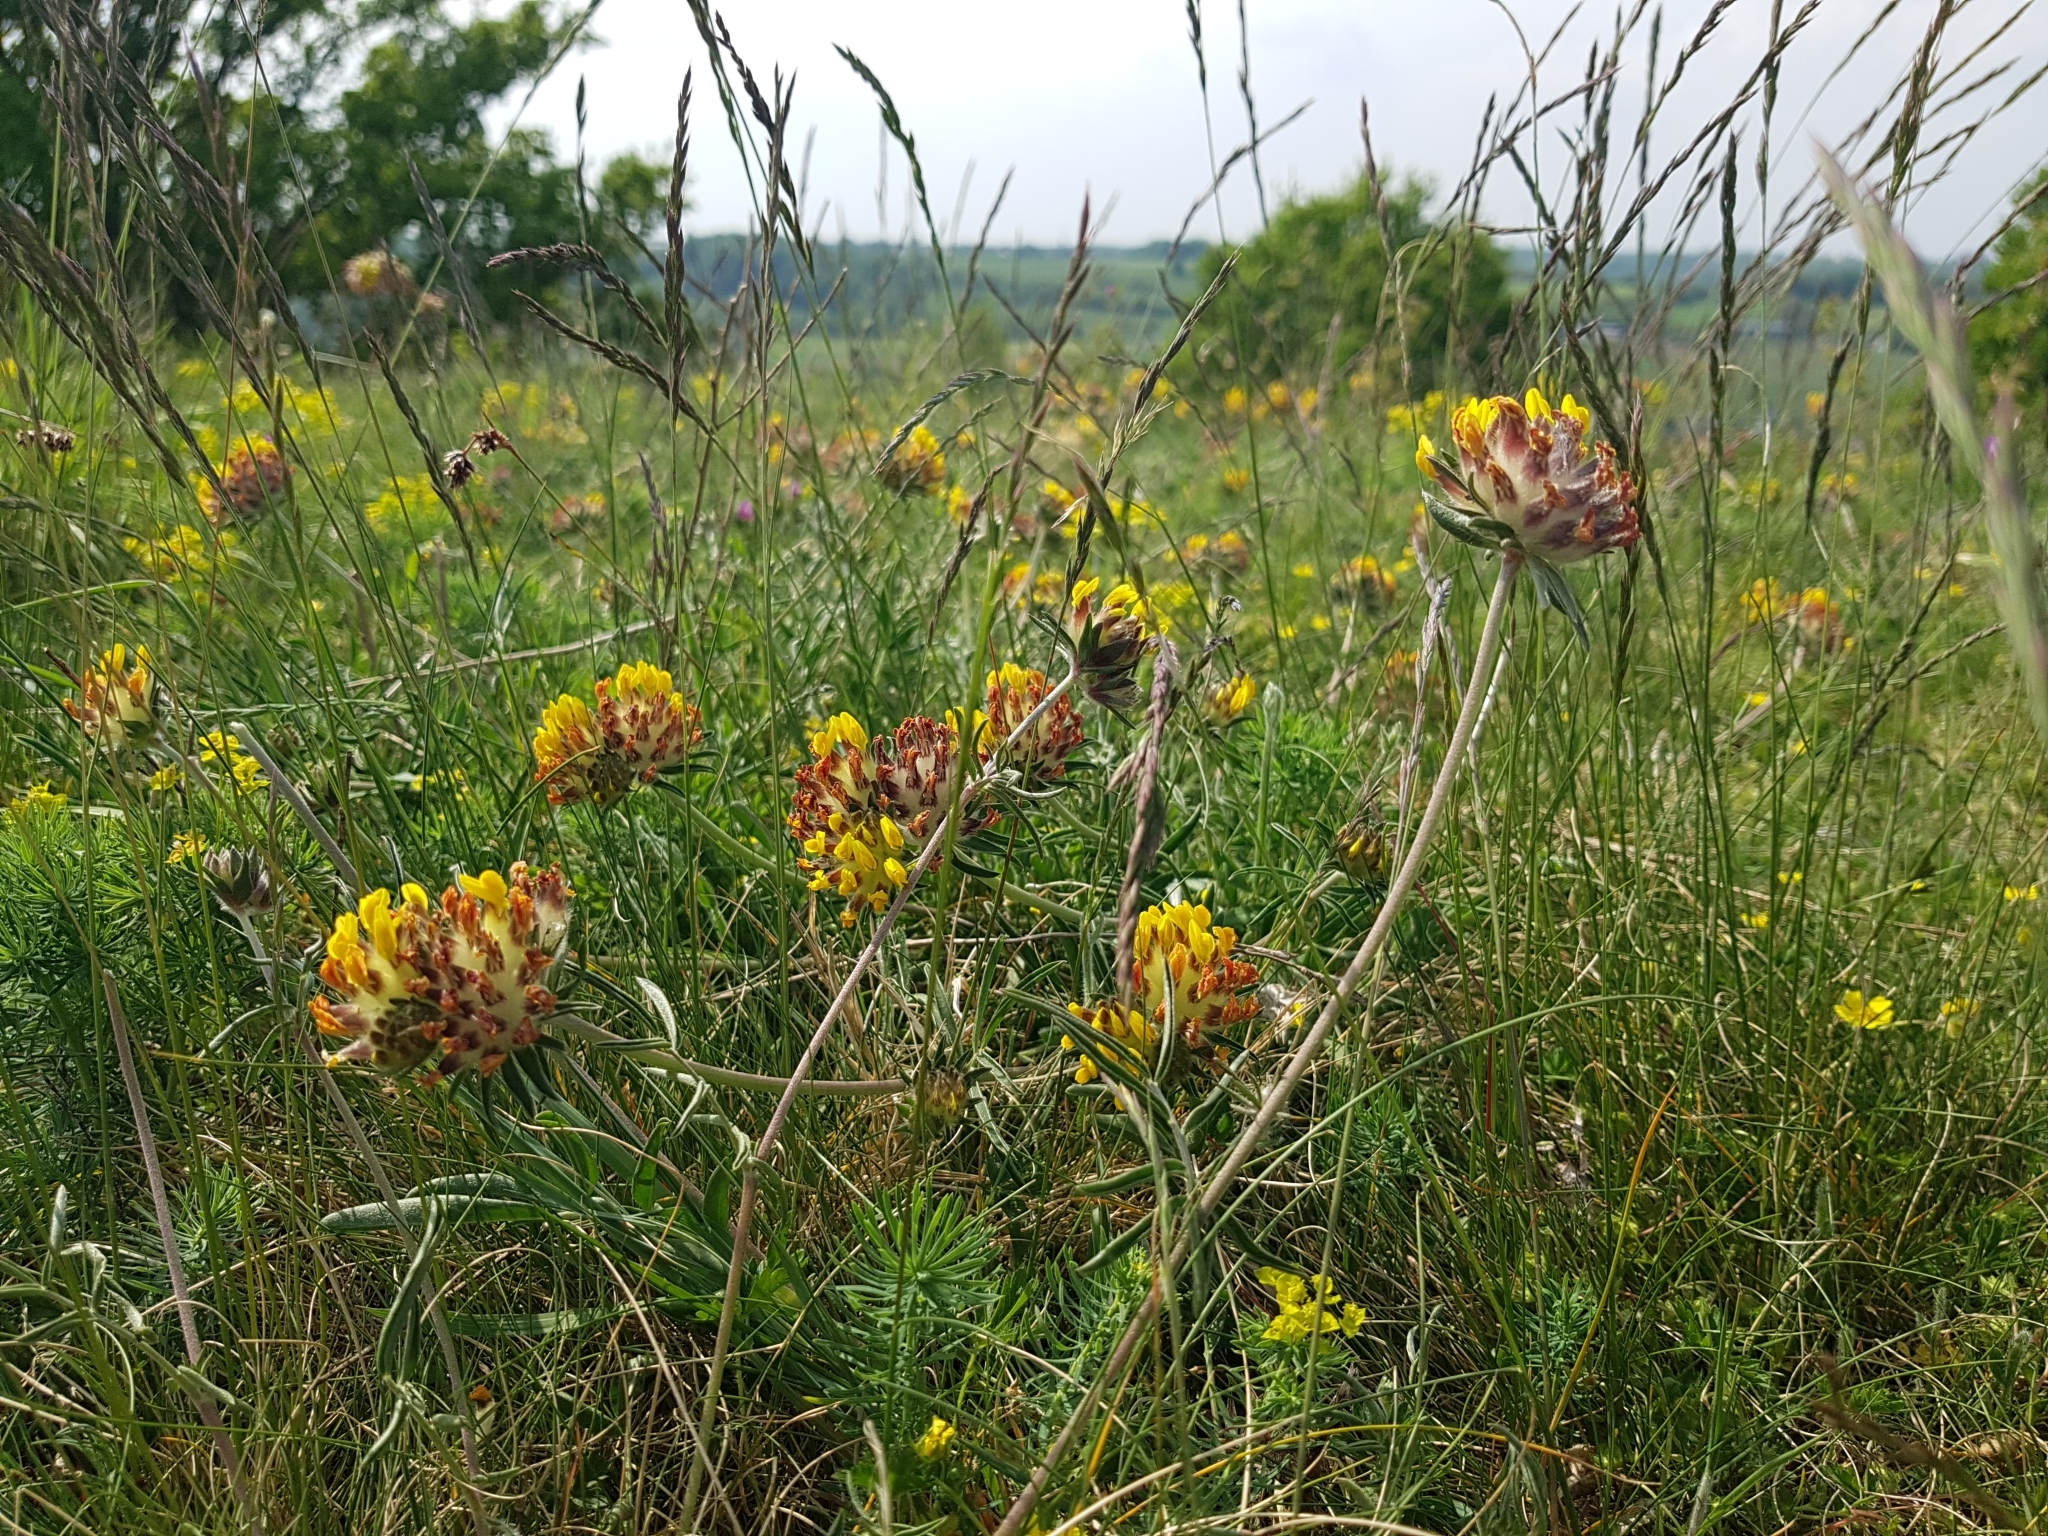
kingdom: Plantae
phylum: Tracheophyta
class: Magnoliopsida
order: Fabales
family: Fabaceae
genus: Anthyllis
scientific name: Anthyllis vulneraria
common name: Kidney vetch
